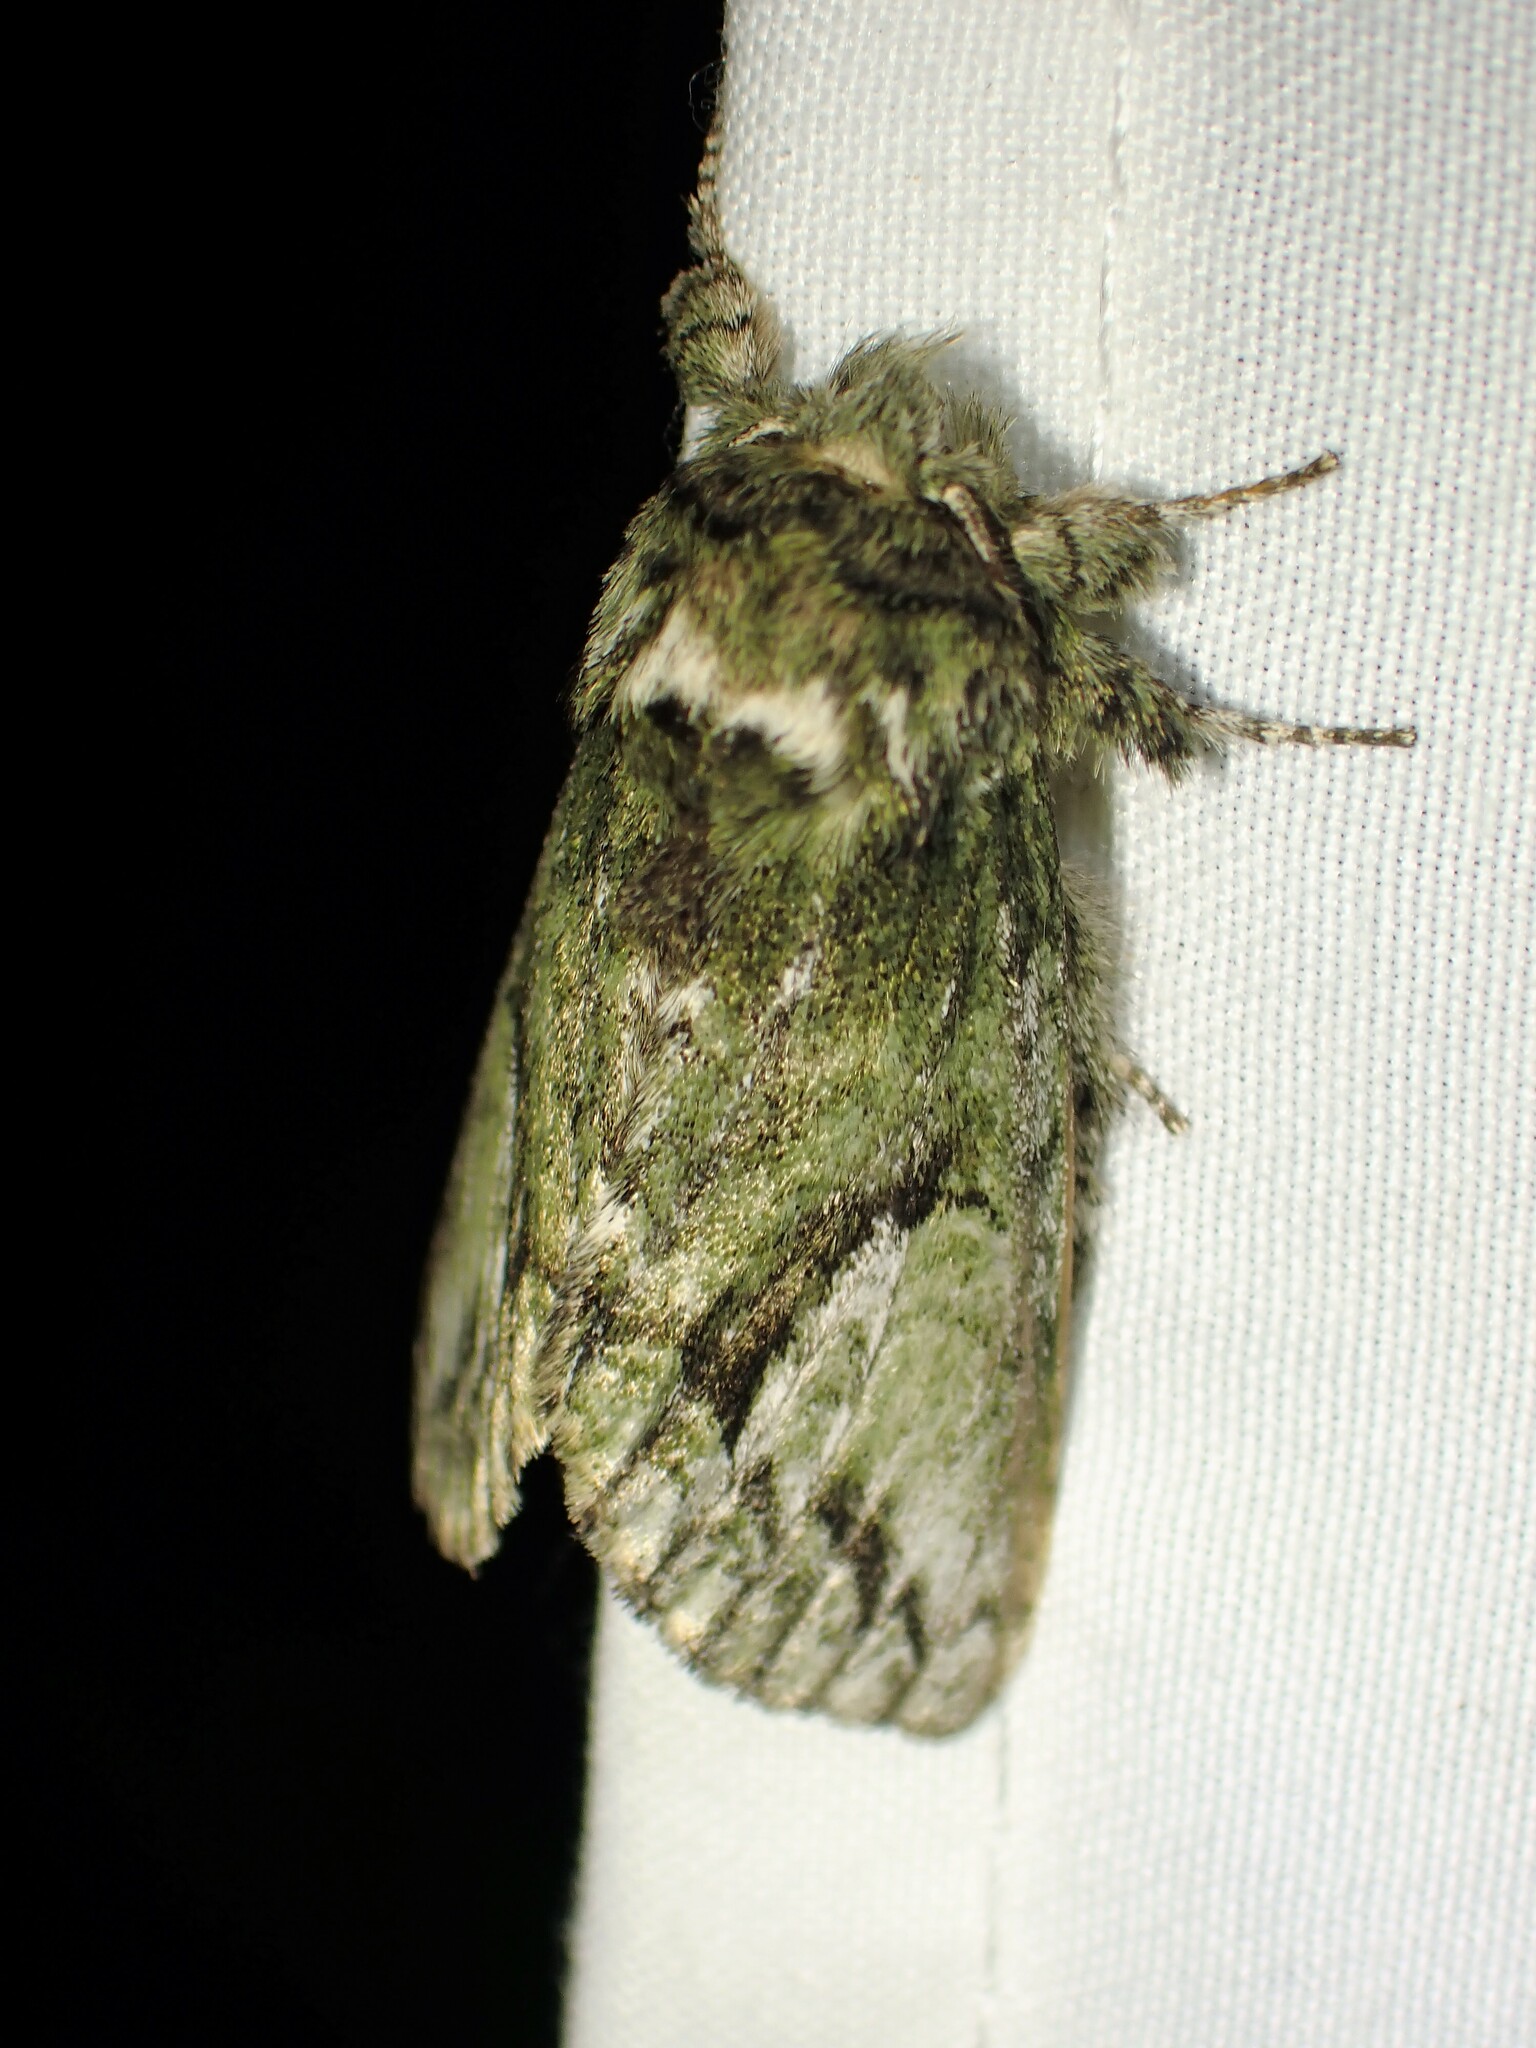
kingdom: Animalia
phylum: Arthropoda
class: Insecta
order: Lepidoptera
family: Notodontidae
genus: Heterocampa
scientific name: Heterocampa
